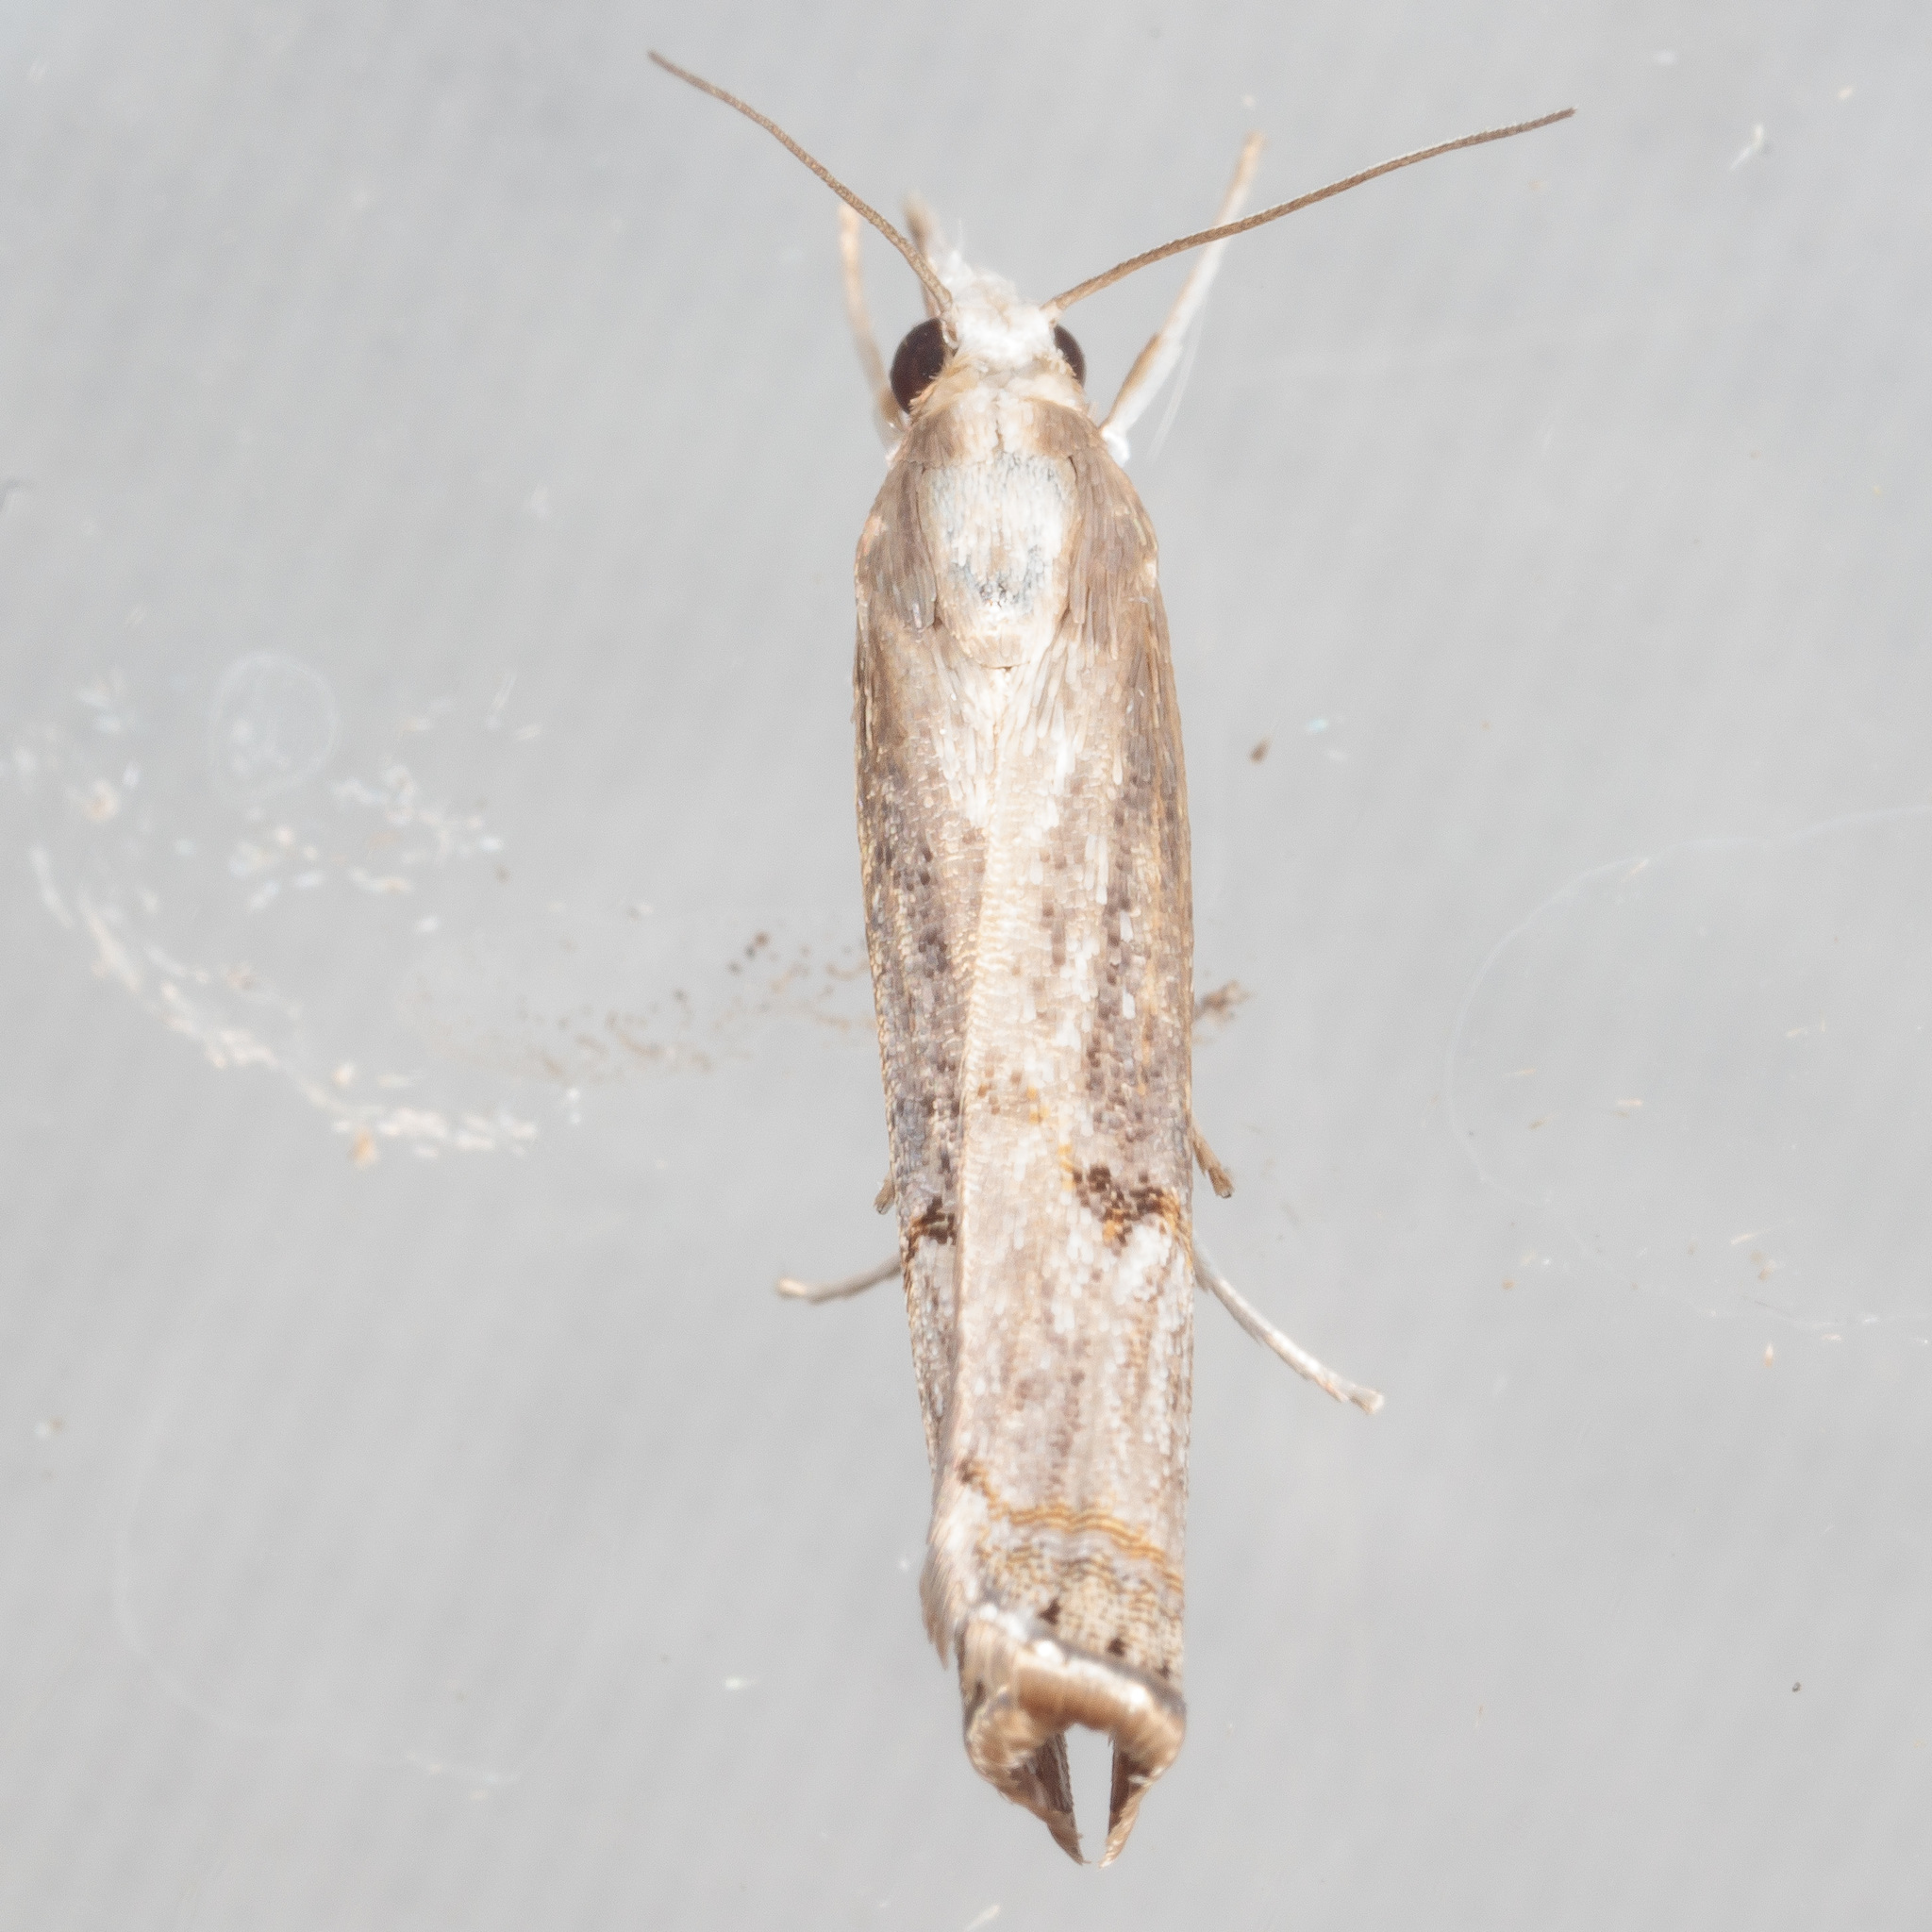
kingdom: Animalia
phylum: Arthropoda
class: Insecta
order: Lepidoptera
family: Crambidae
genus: Parapediasia
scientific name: Parapediasia teterellus
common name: Bluegrass webworm moth
